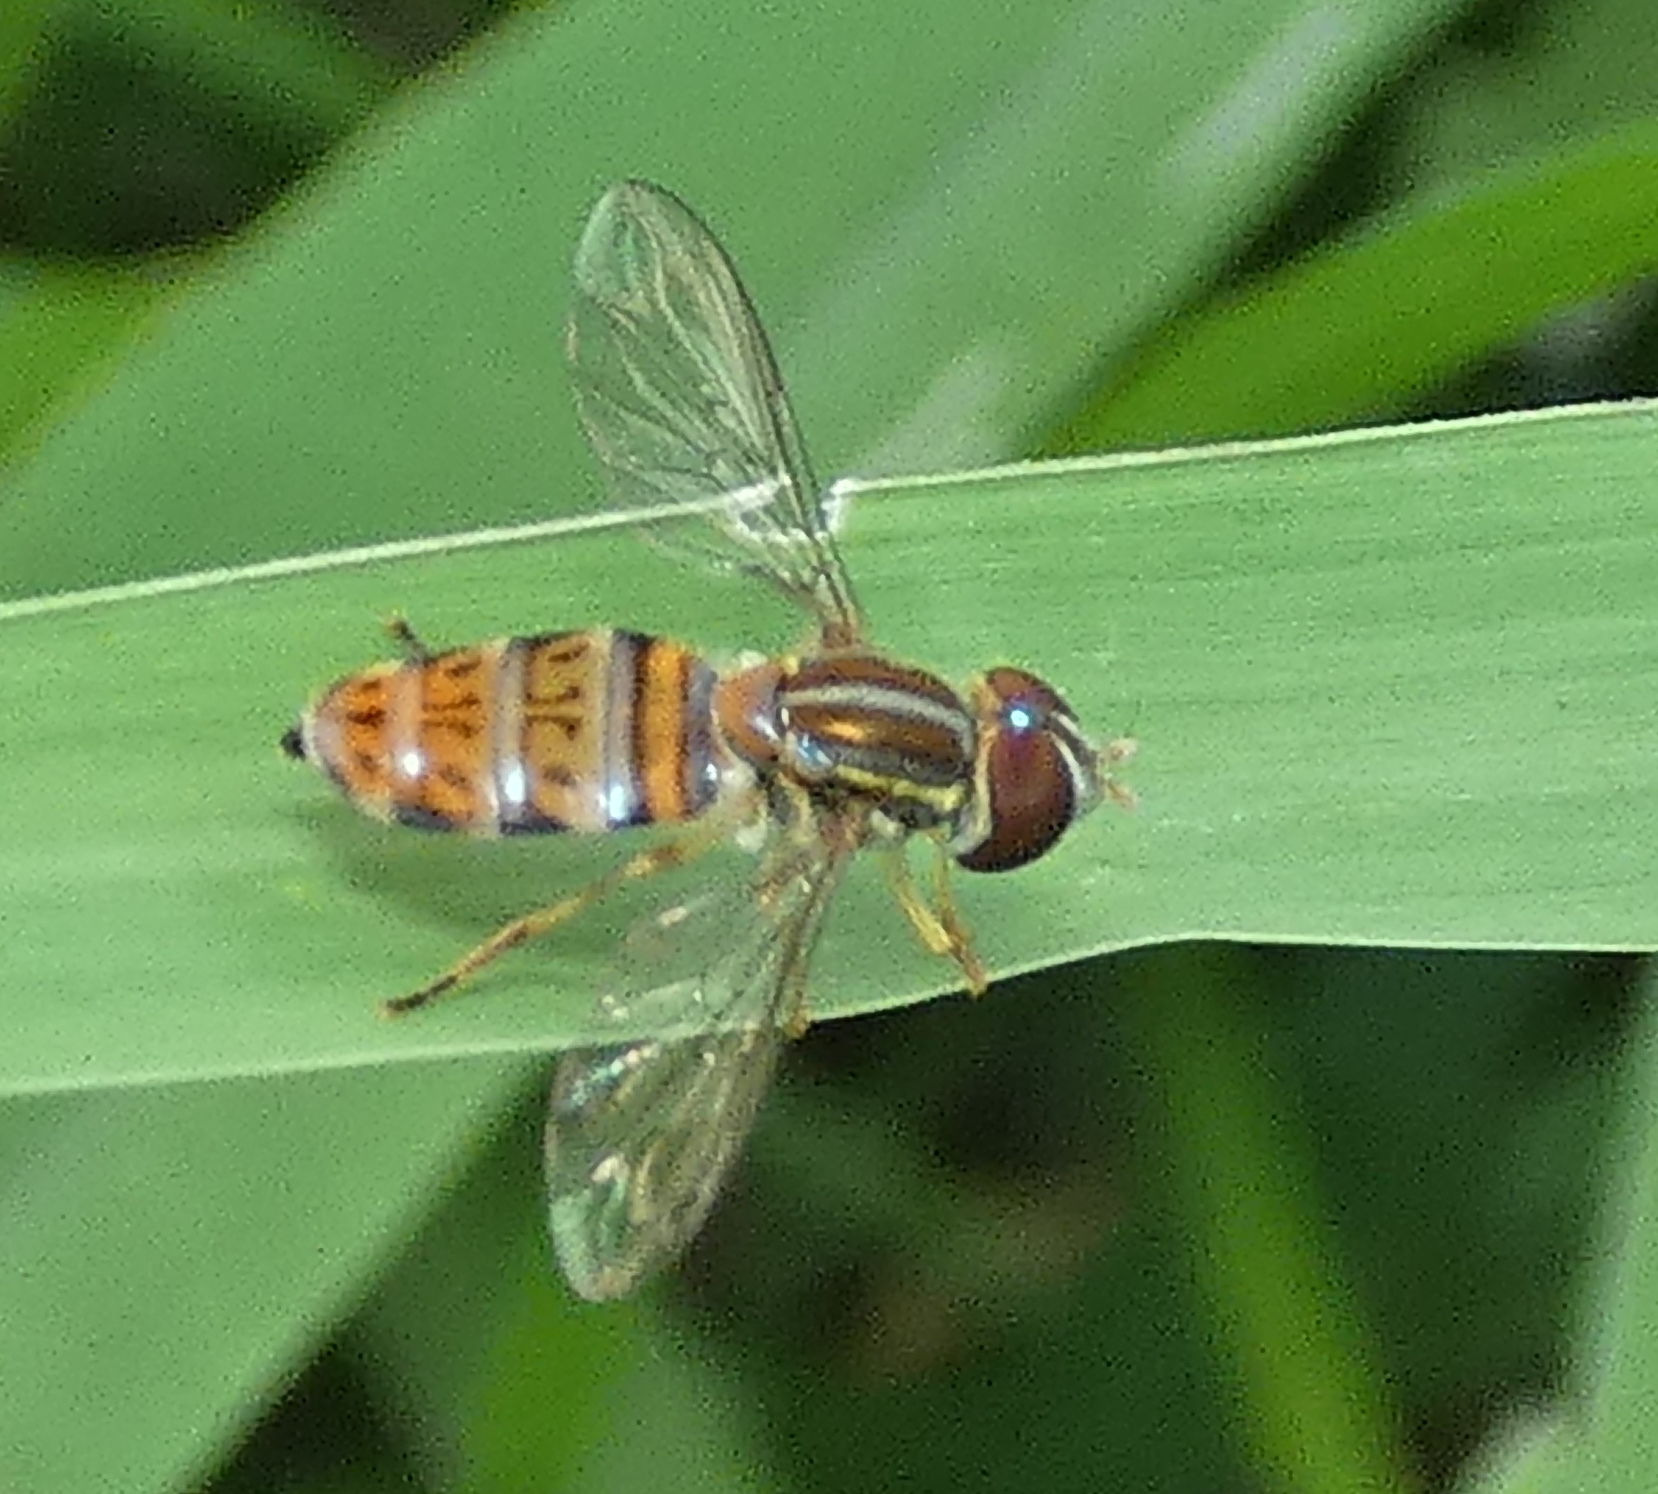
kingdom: Animalia
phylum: Arthropoda
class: Insecta
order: Diptera
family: Syrphidae
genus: Toxomerus
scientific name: Toxomerus pulchellus
